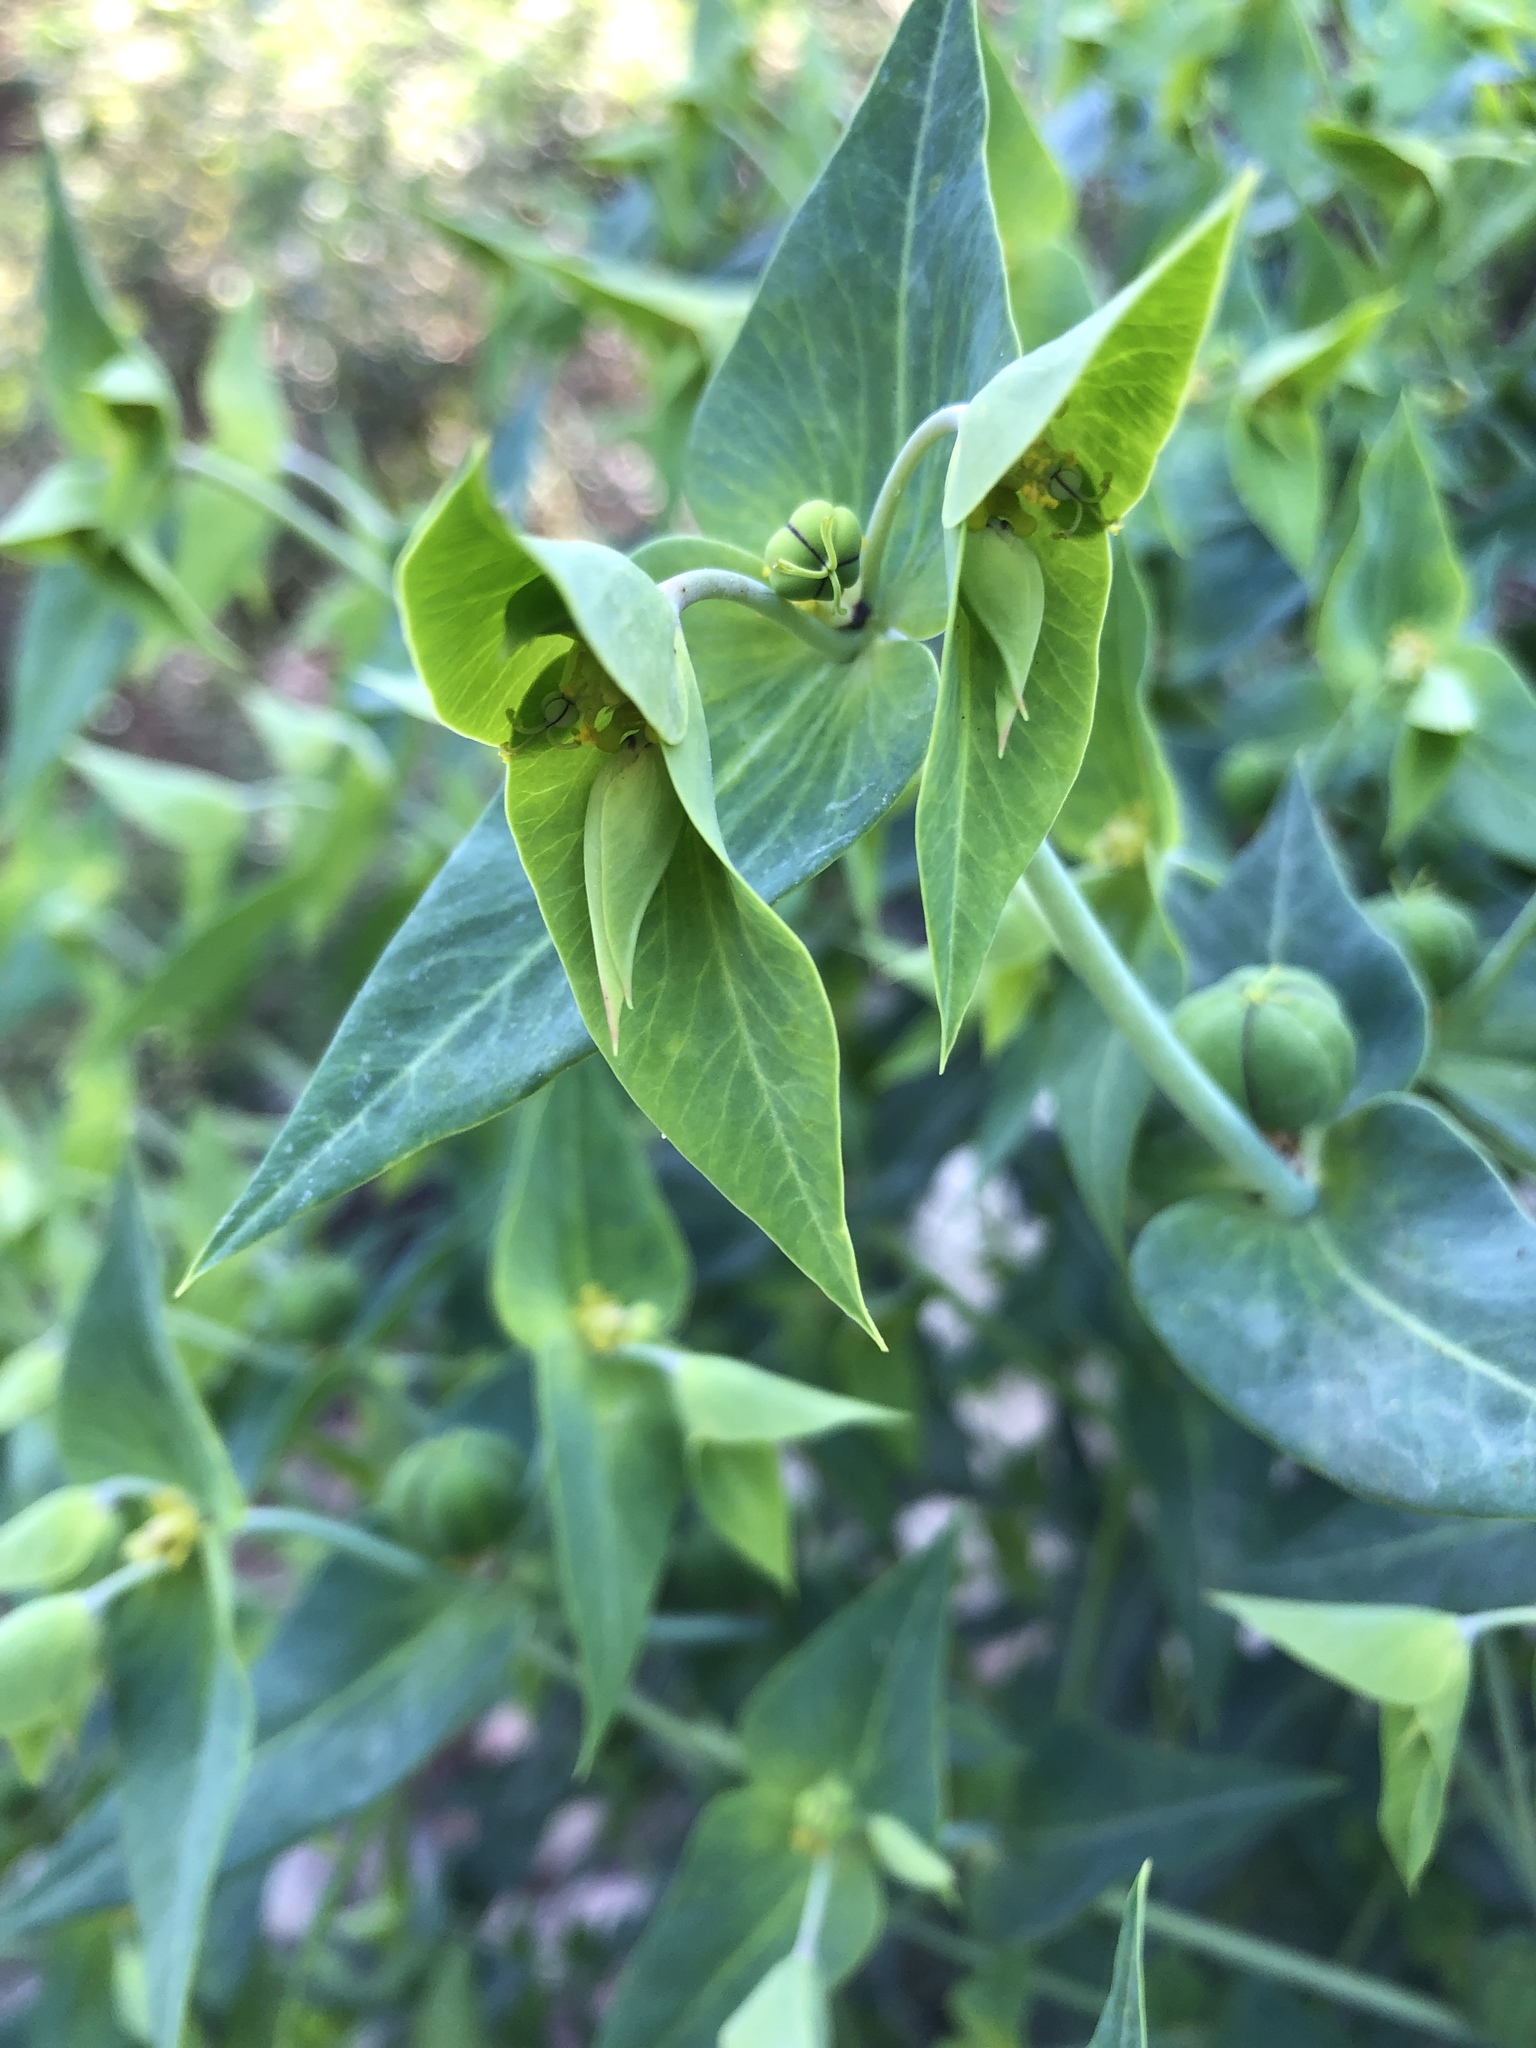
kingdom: Plantae
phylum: Tracheophyta
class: Magnoliopsida
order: Malpighiales
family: Euphorbiaceae
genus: Euphorbia
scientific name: Euphorbia lathyris
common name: Caper spurge
